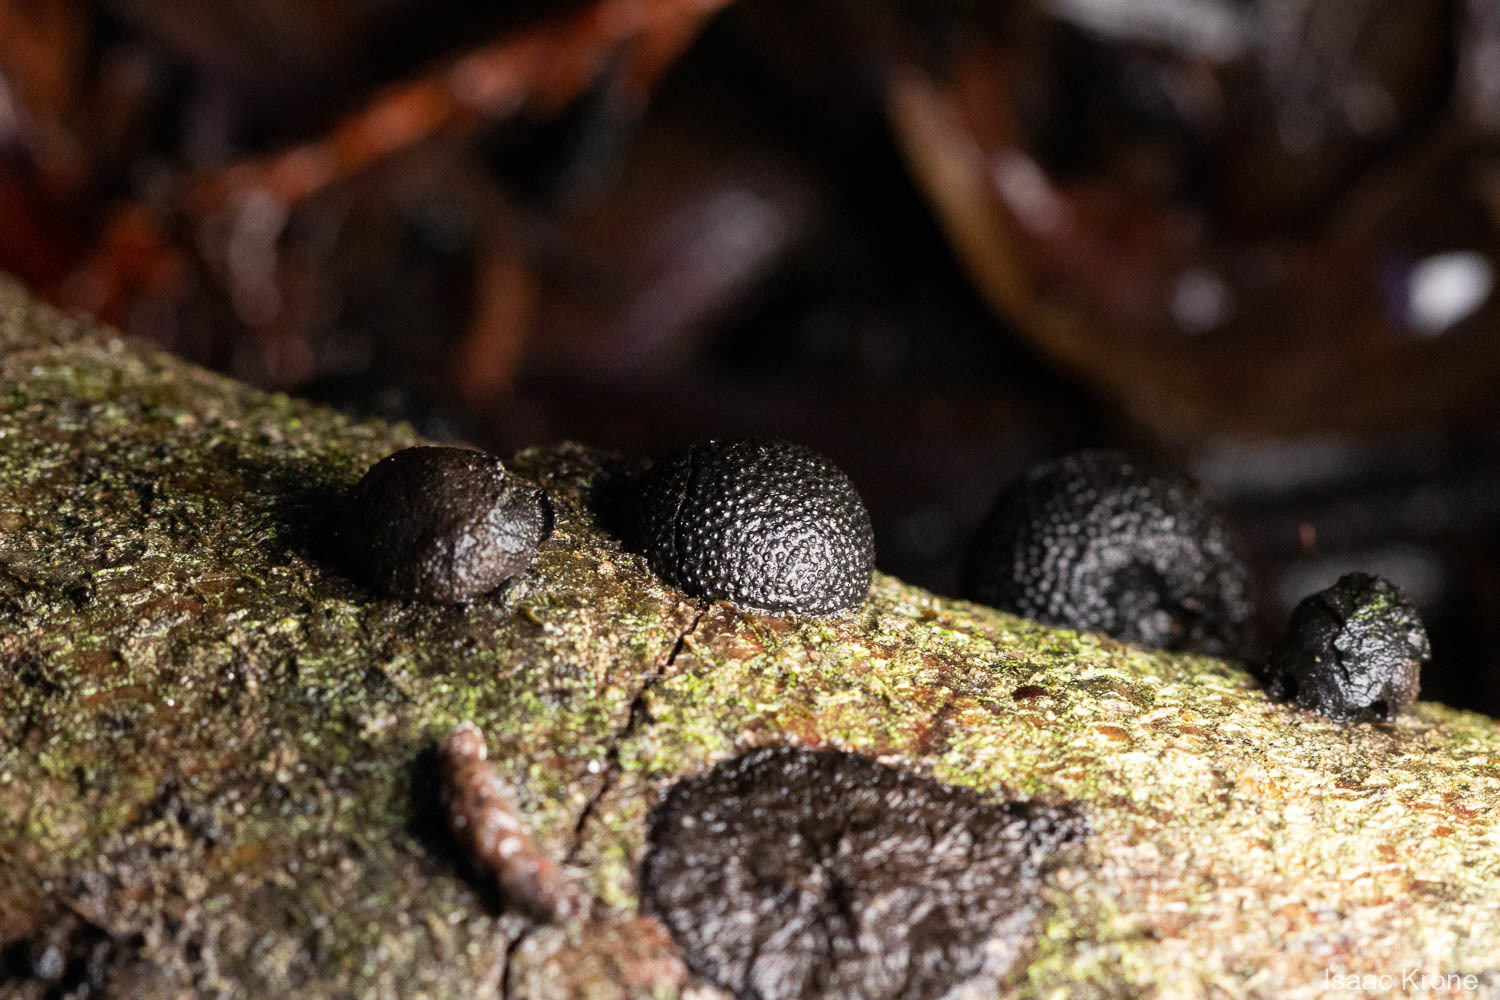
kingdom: Fungi
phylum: Ascomycota
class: Sordariomycetes
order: Xylariales
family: Hypoxylaceae
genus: Annulohypoxylon
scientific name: Annulohypoxylon thouarsianum
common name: Cramp balls
